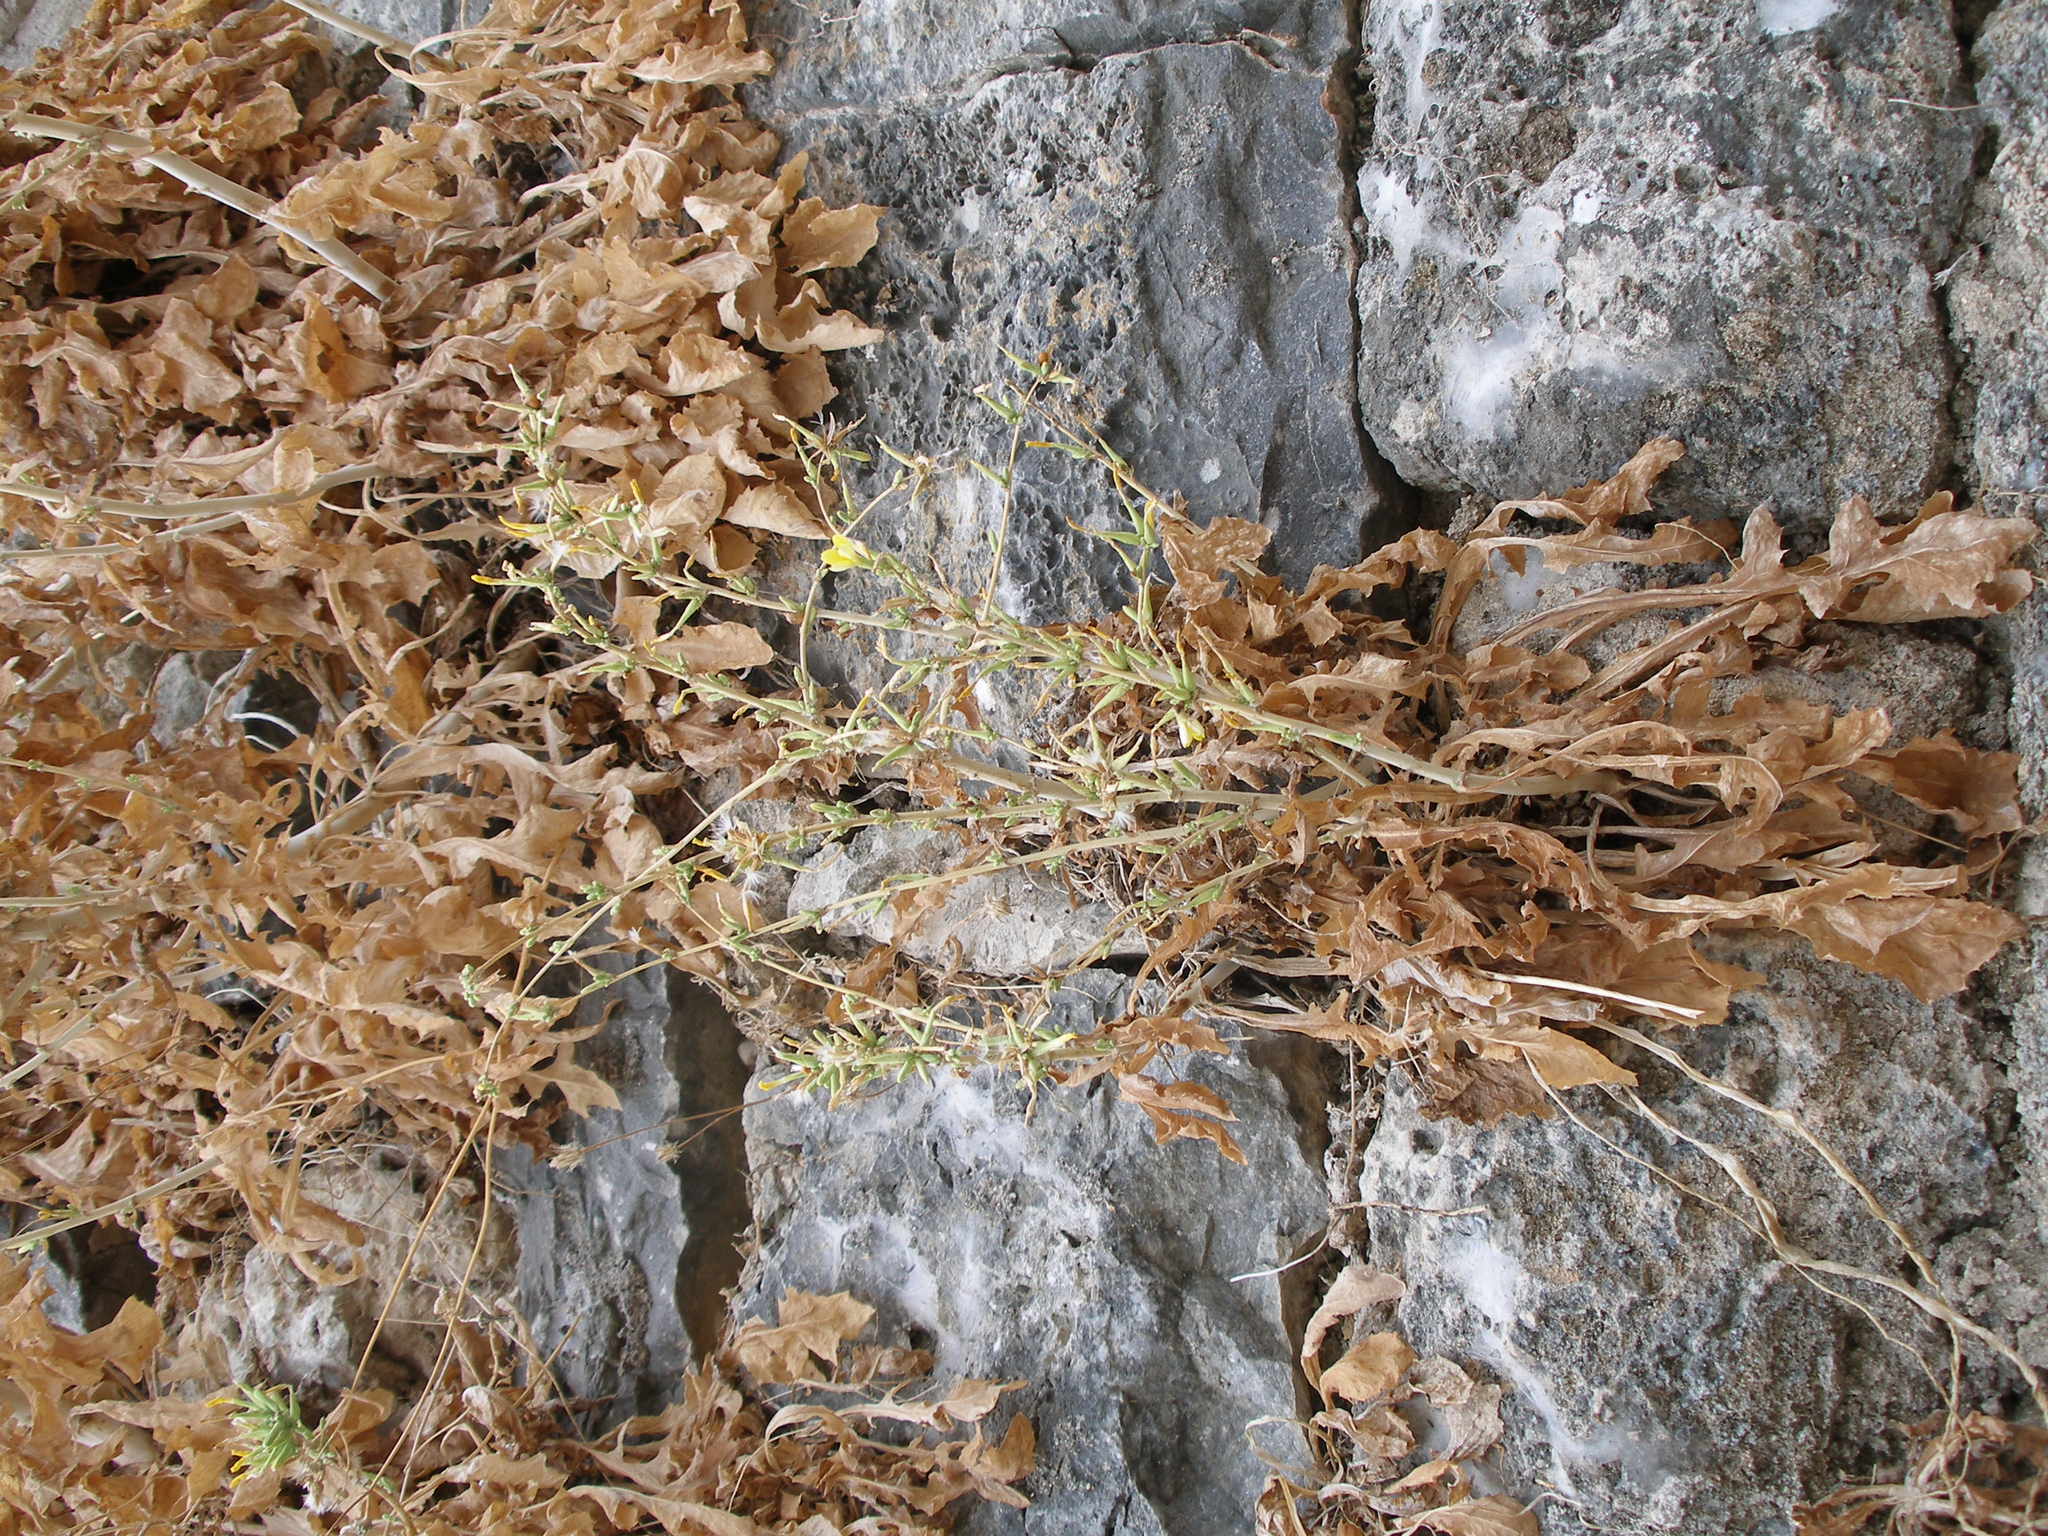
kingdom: Plantae
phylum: Tracheophyta
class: Magnoliopsida
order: Asterales
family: Asteraceae
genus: Lactuca
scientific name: Lactuca acanthifolia
